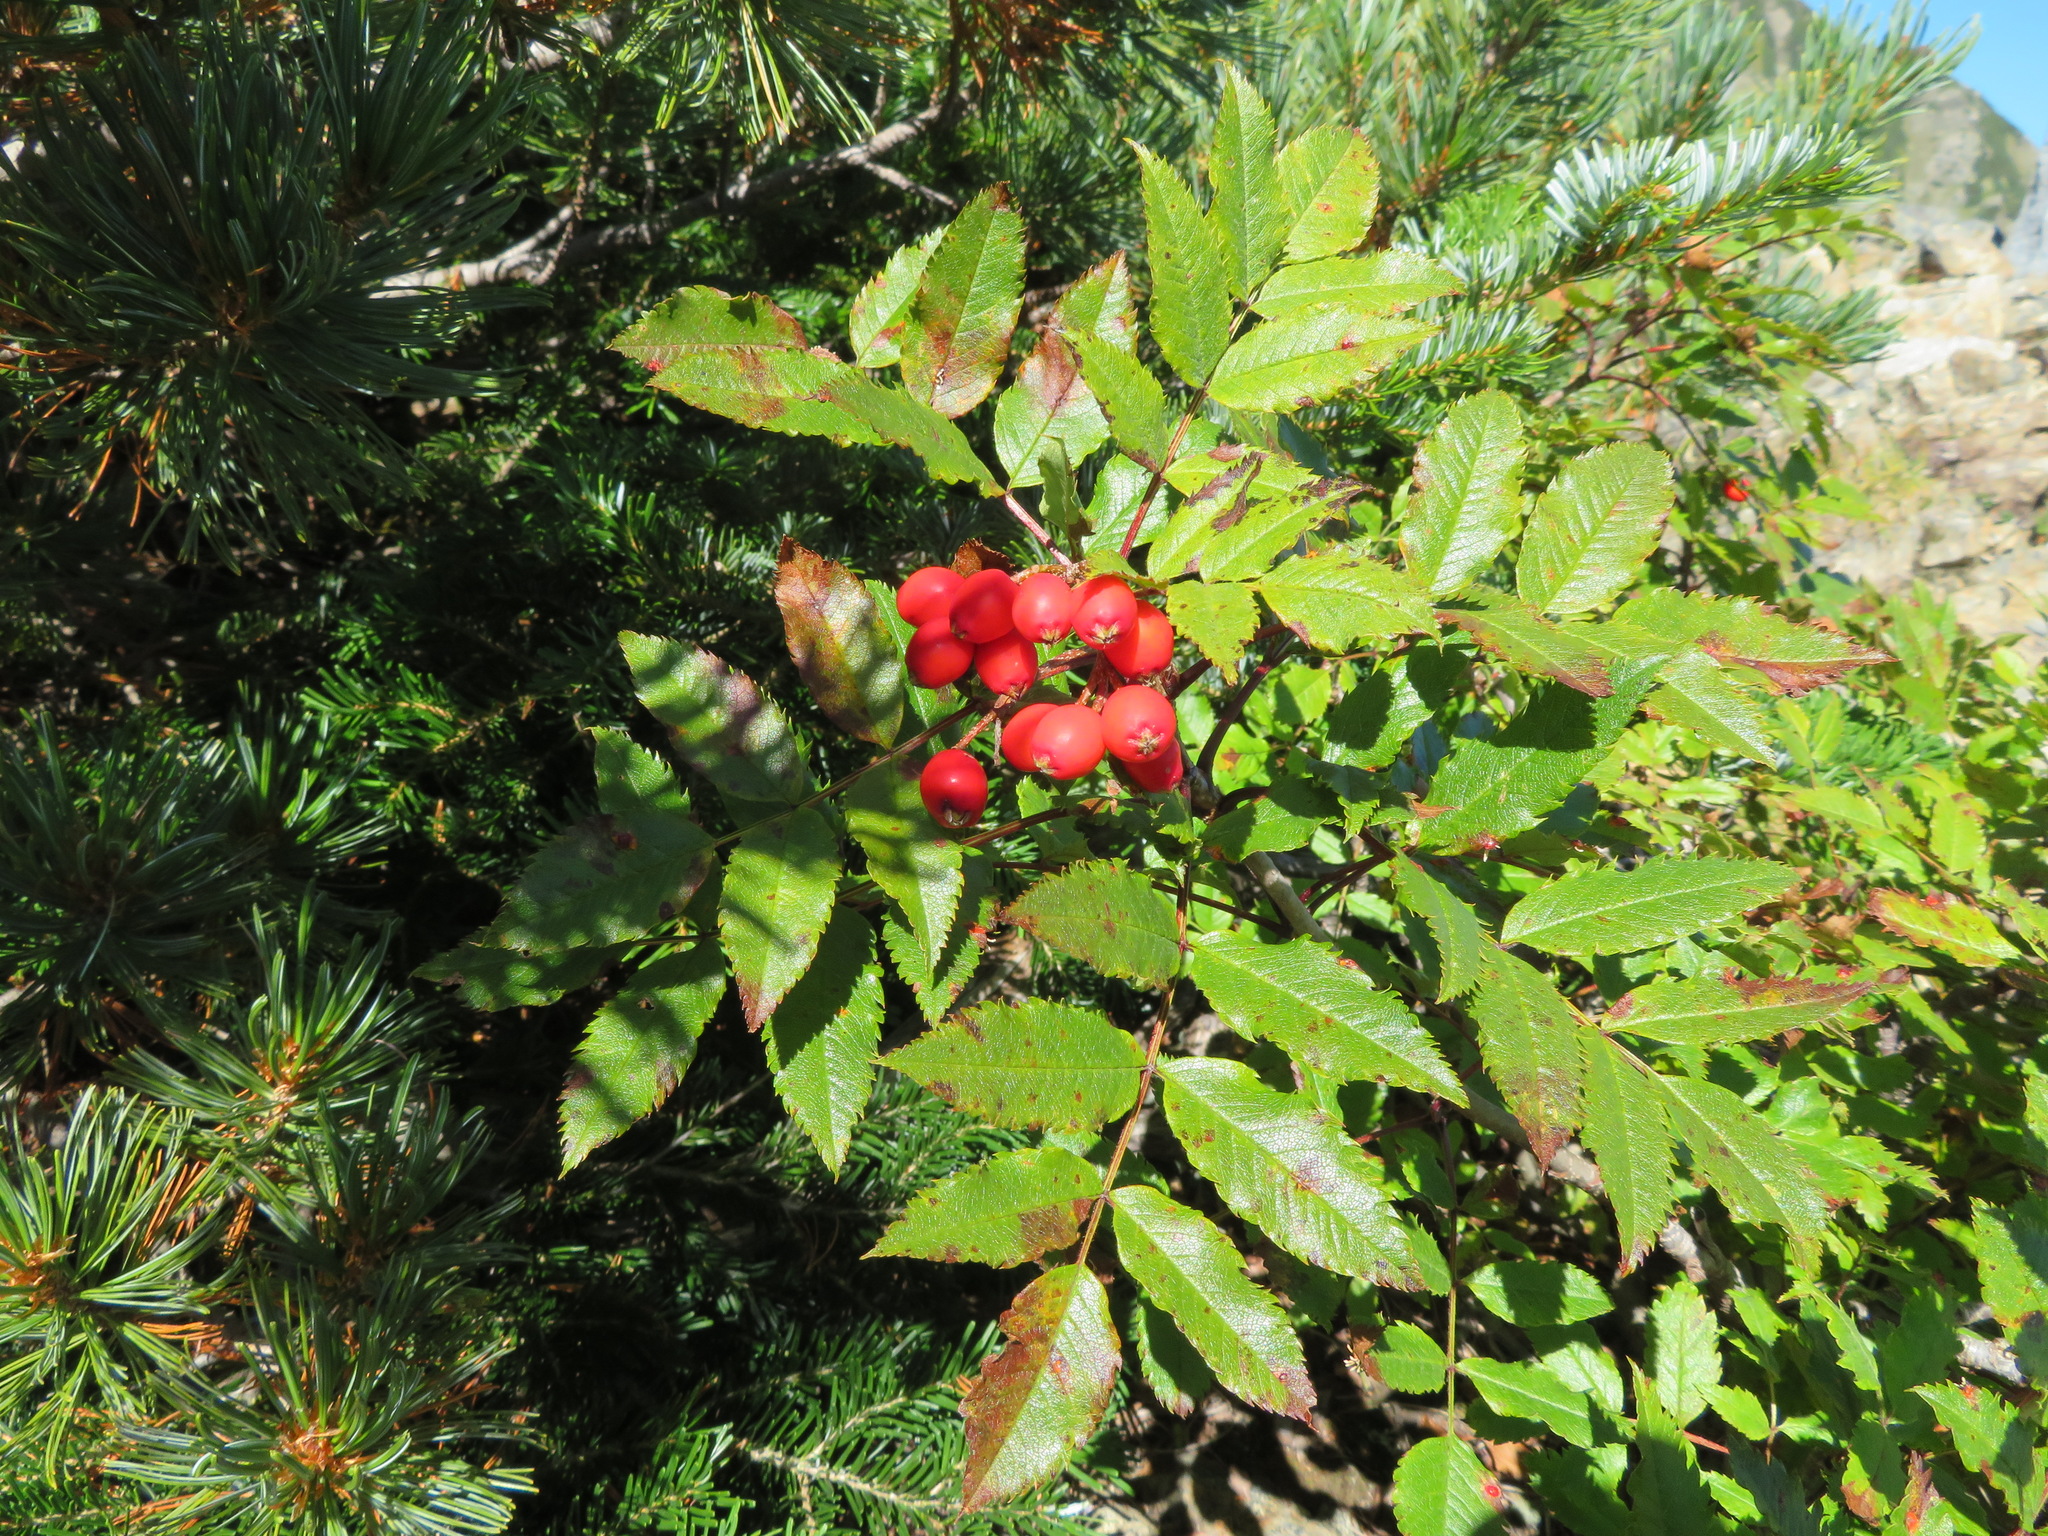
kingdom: Plantae
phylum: Tracheophyta
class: Magnoliopsida
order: Rosales
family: Rosaceae
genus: Sorbus
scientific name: Sorbus sambucifolia
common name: Siberian mountain-ash
